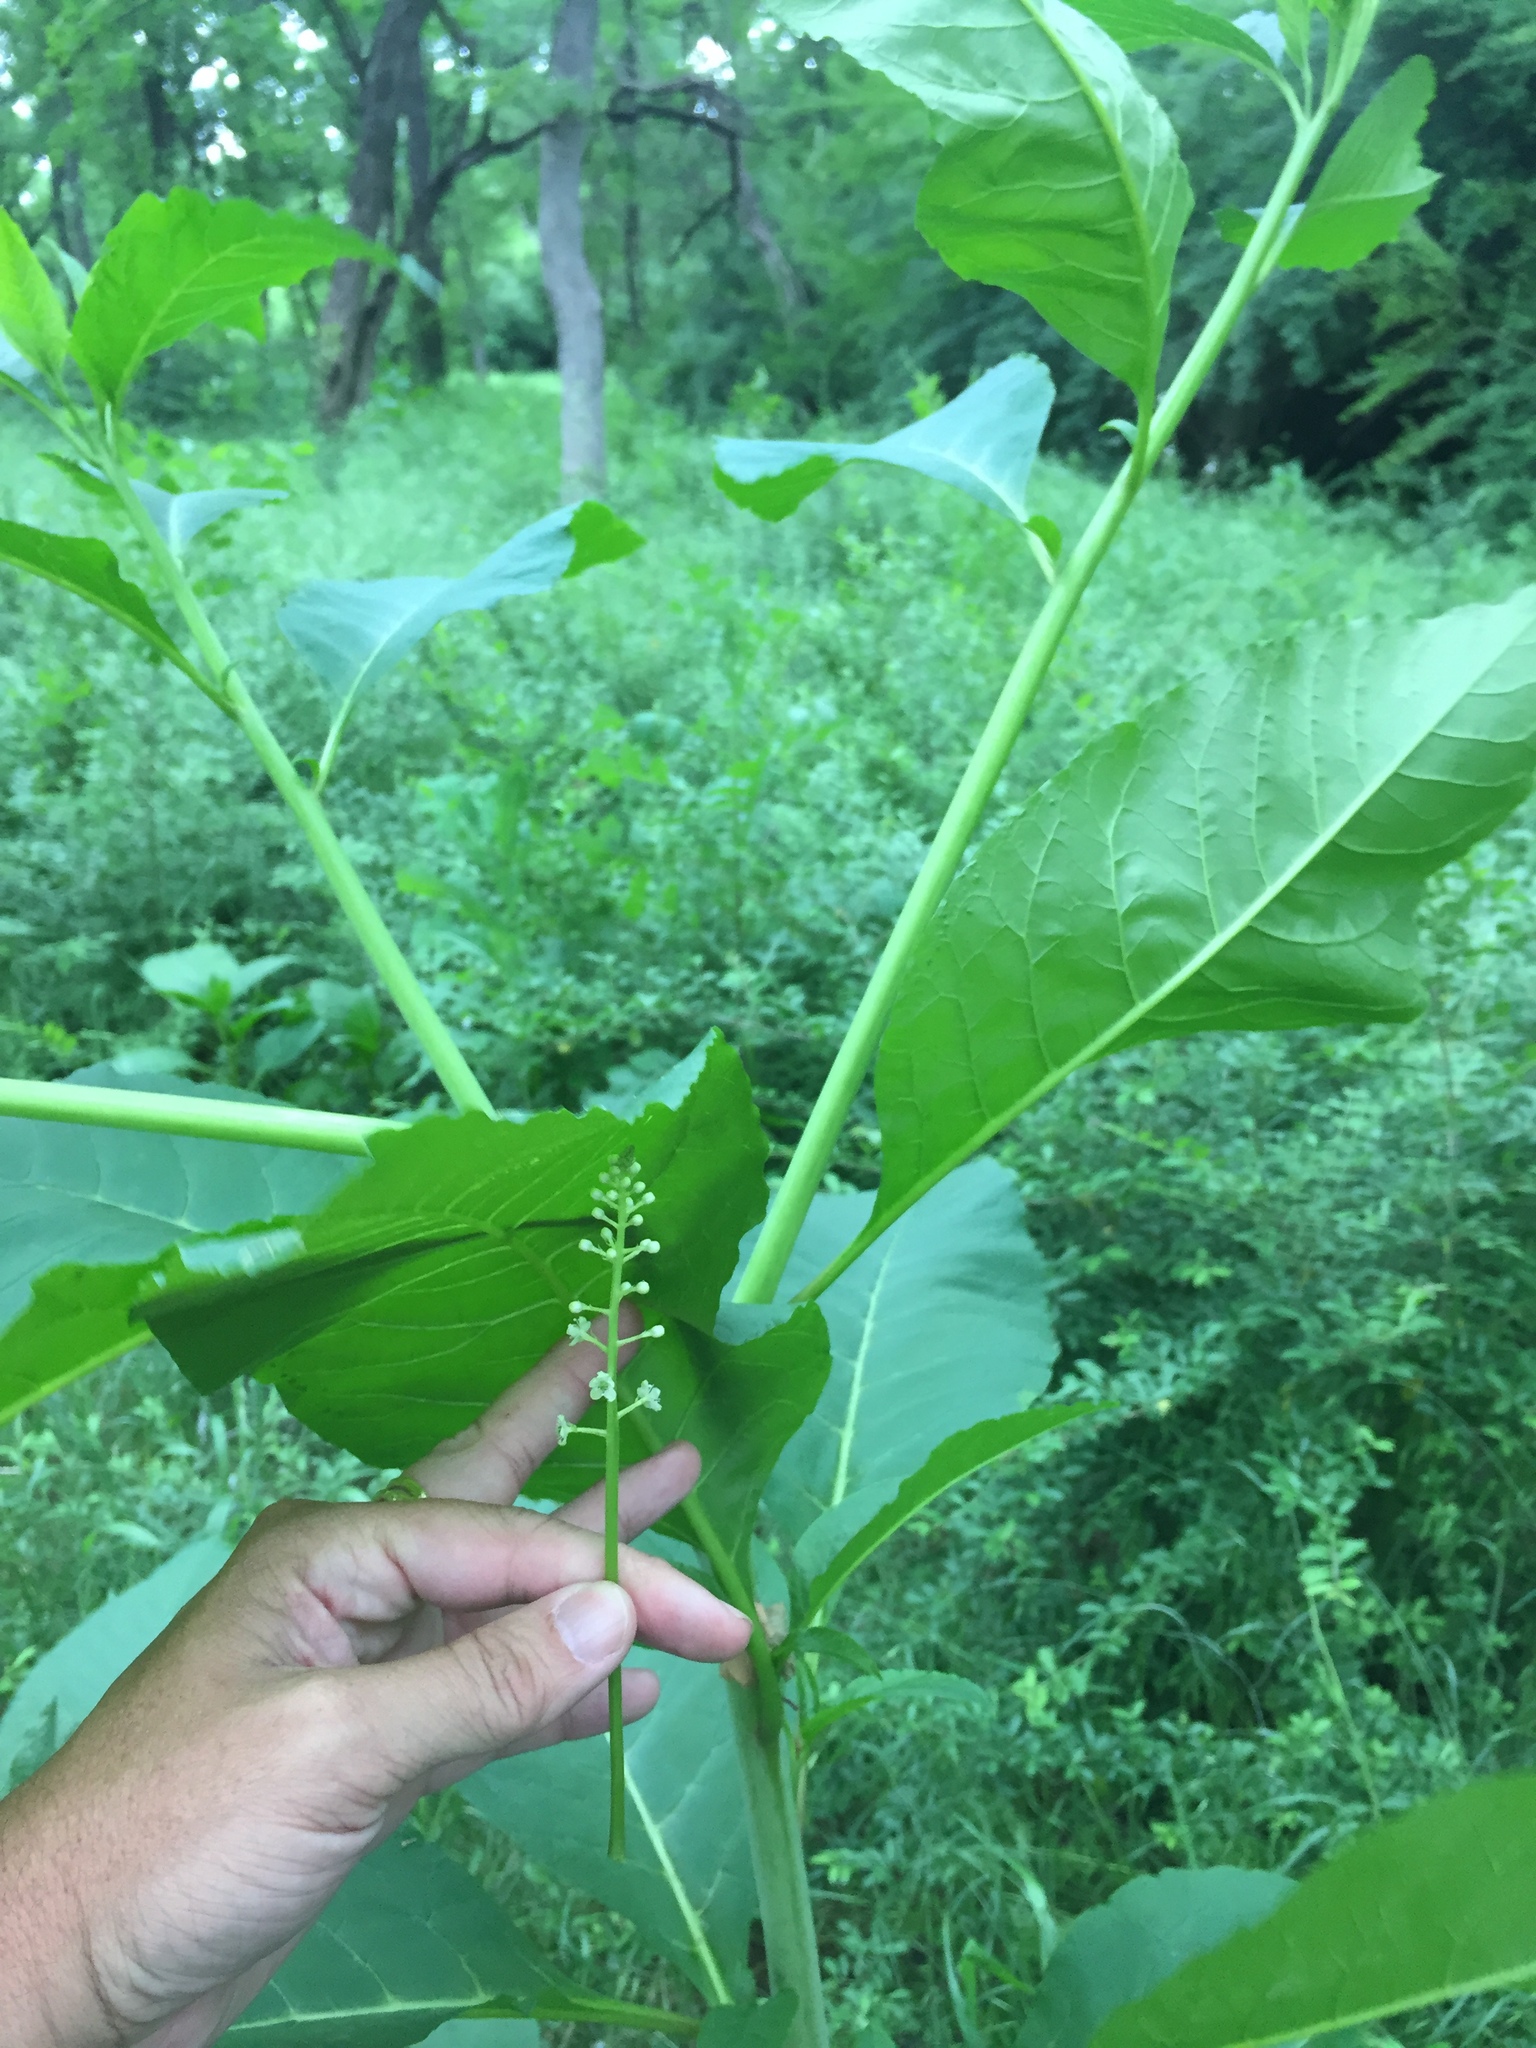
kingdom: Plantae
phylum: Tracheophyta
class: Magnoliopsida
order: Caryophyllales
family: Phytolaccaceae
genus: Phytolacca
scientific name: Phytolacca americana
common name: American pokeweed
